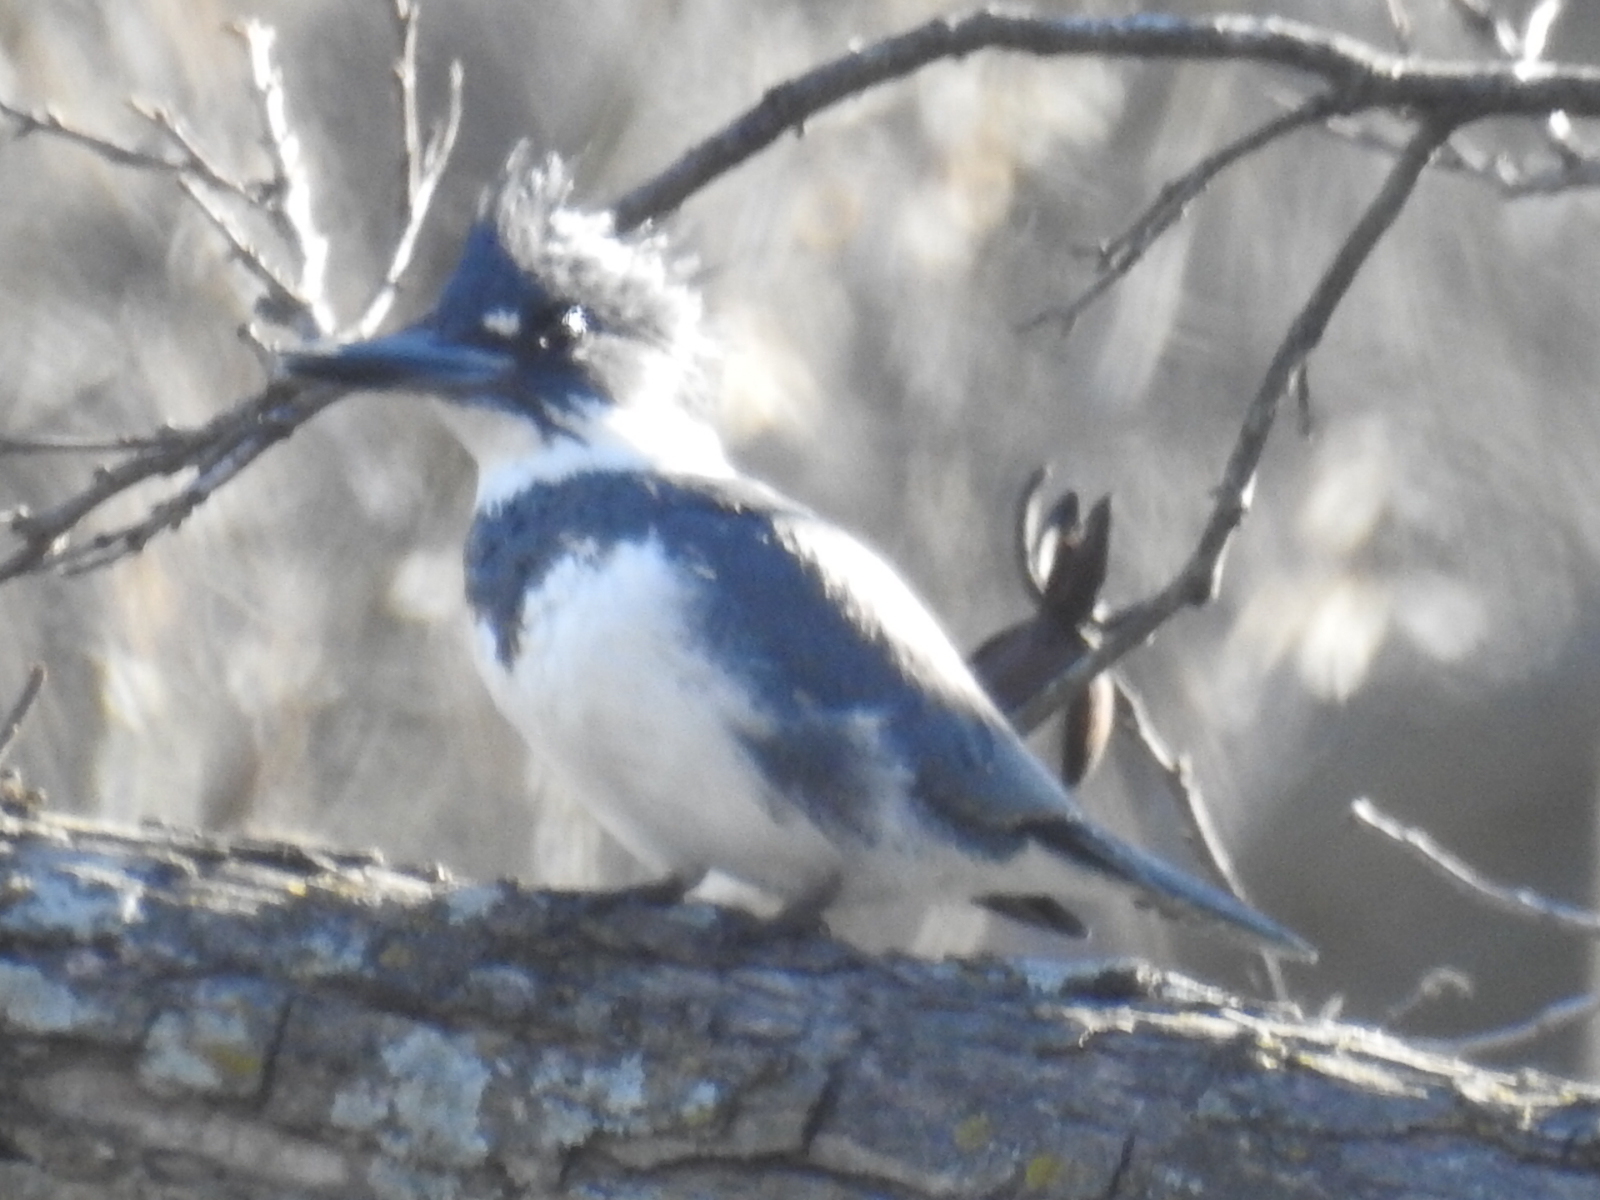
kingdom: Animalia
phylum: Chordata
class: Aves
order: Coraciiformes
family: Alcedinidae
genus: Megaceryle
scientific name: Megaceryle alcyon
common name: Belted kingfisher
